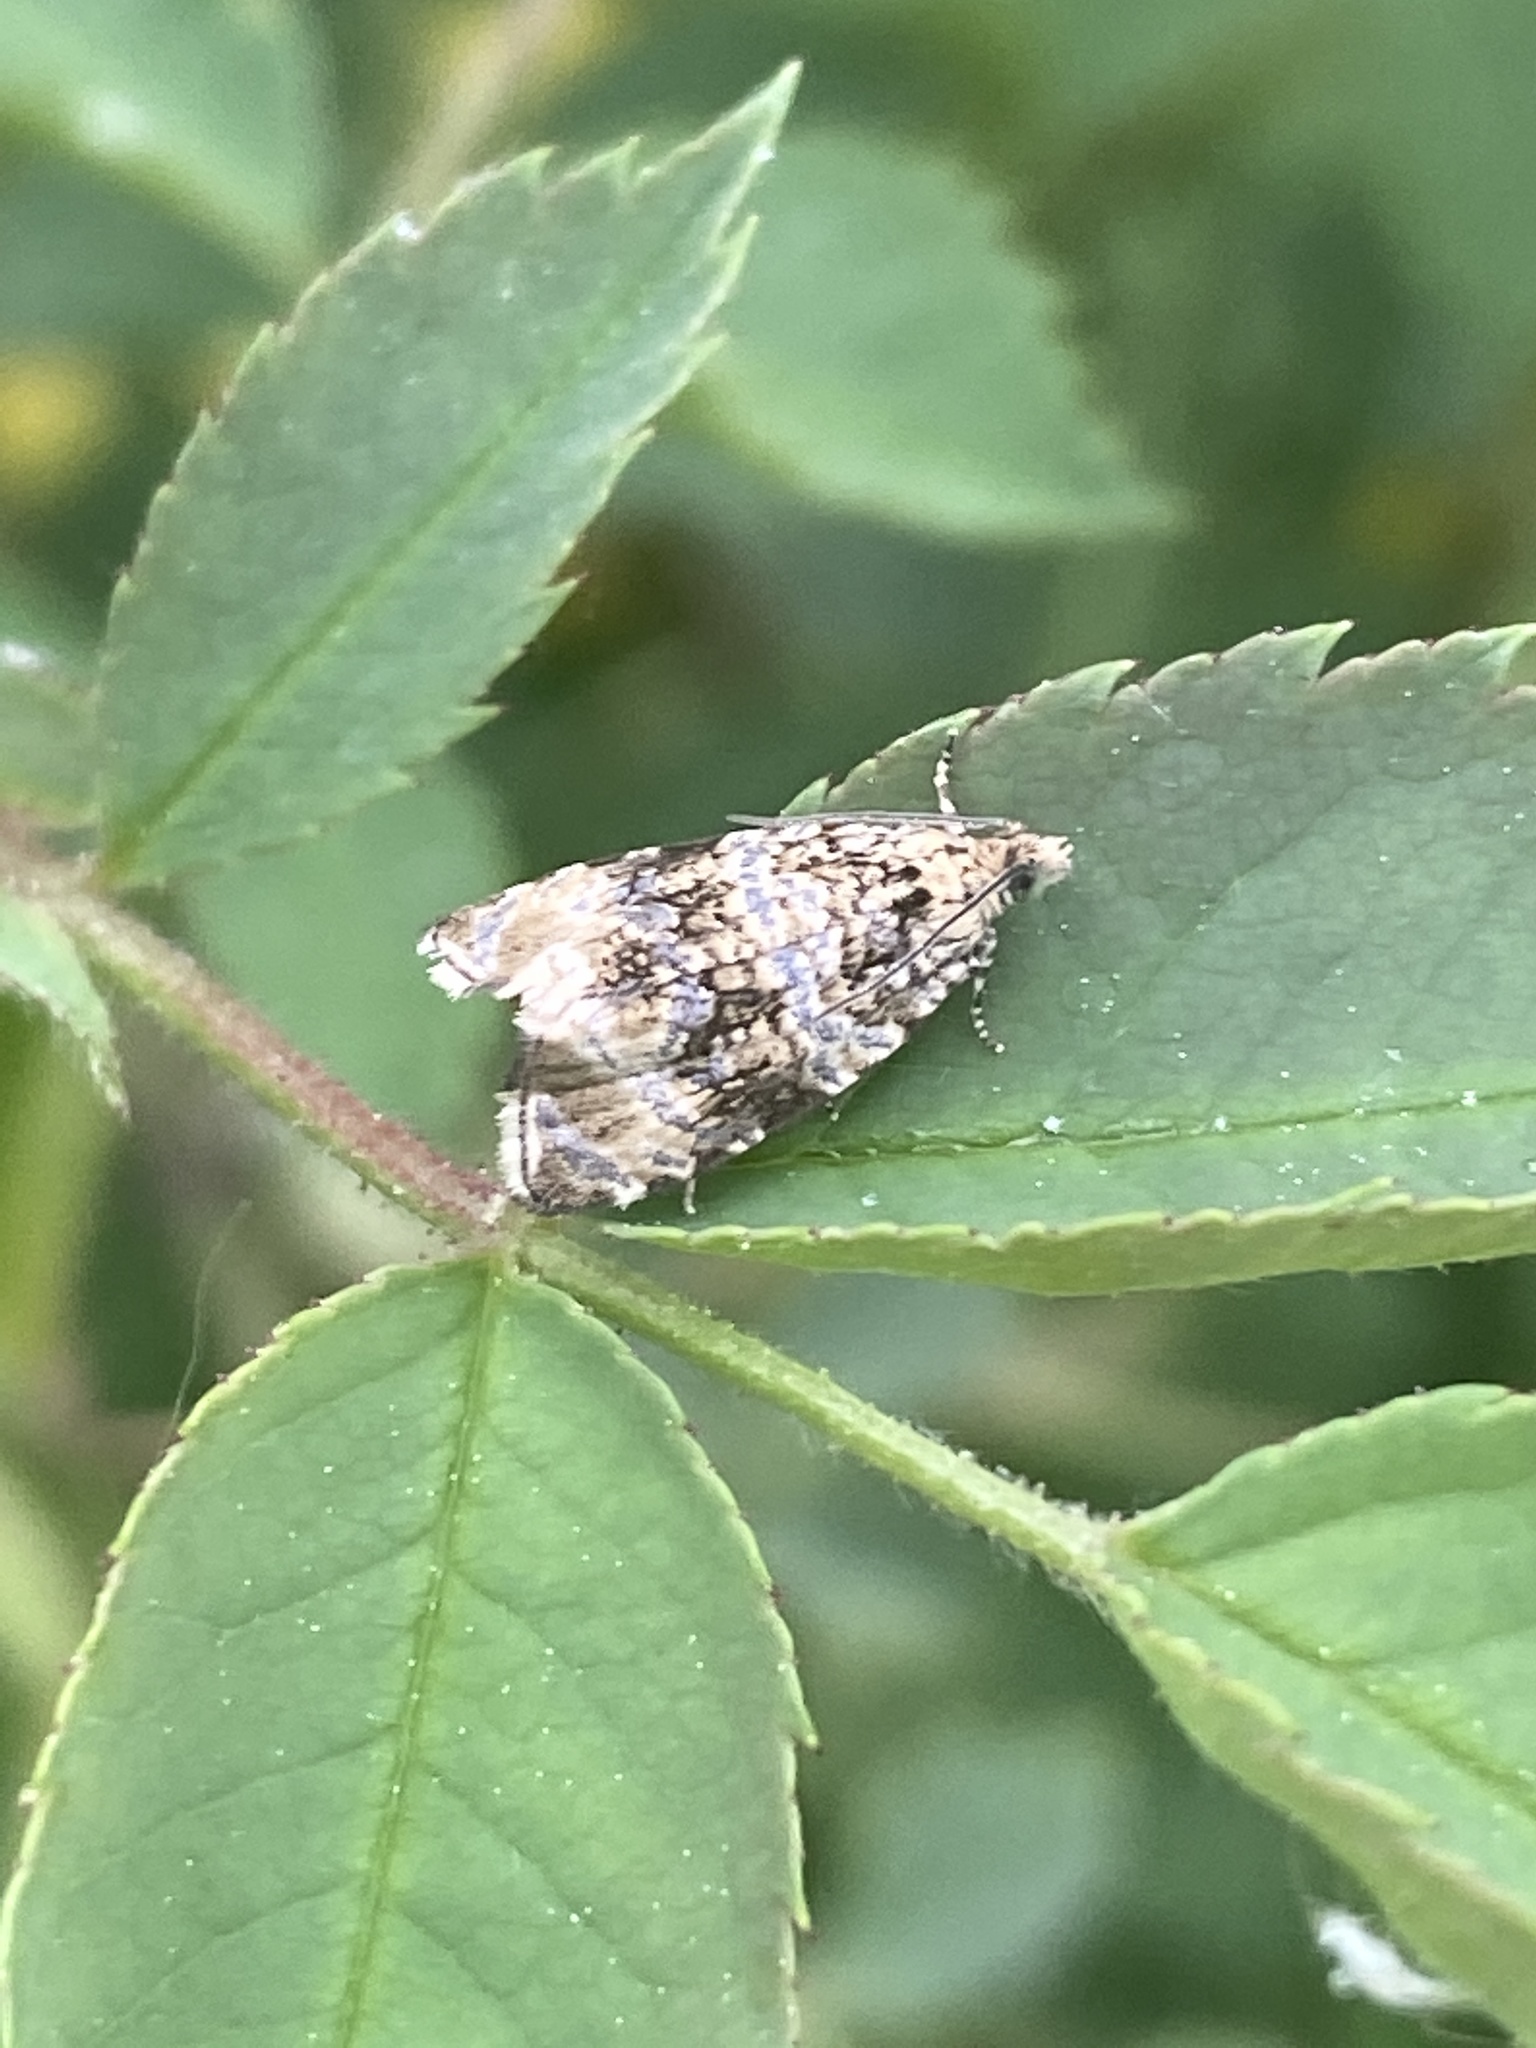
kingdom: Animalia
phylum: Arthropoda
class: Insecta
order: Lepidoptera
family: Tortricidae
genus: Syricoris
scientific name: Syricoris lacunana
